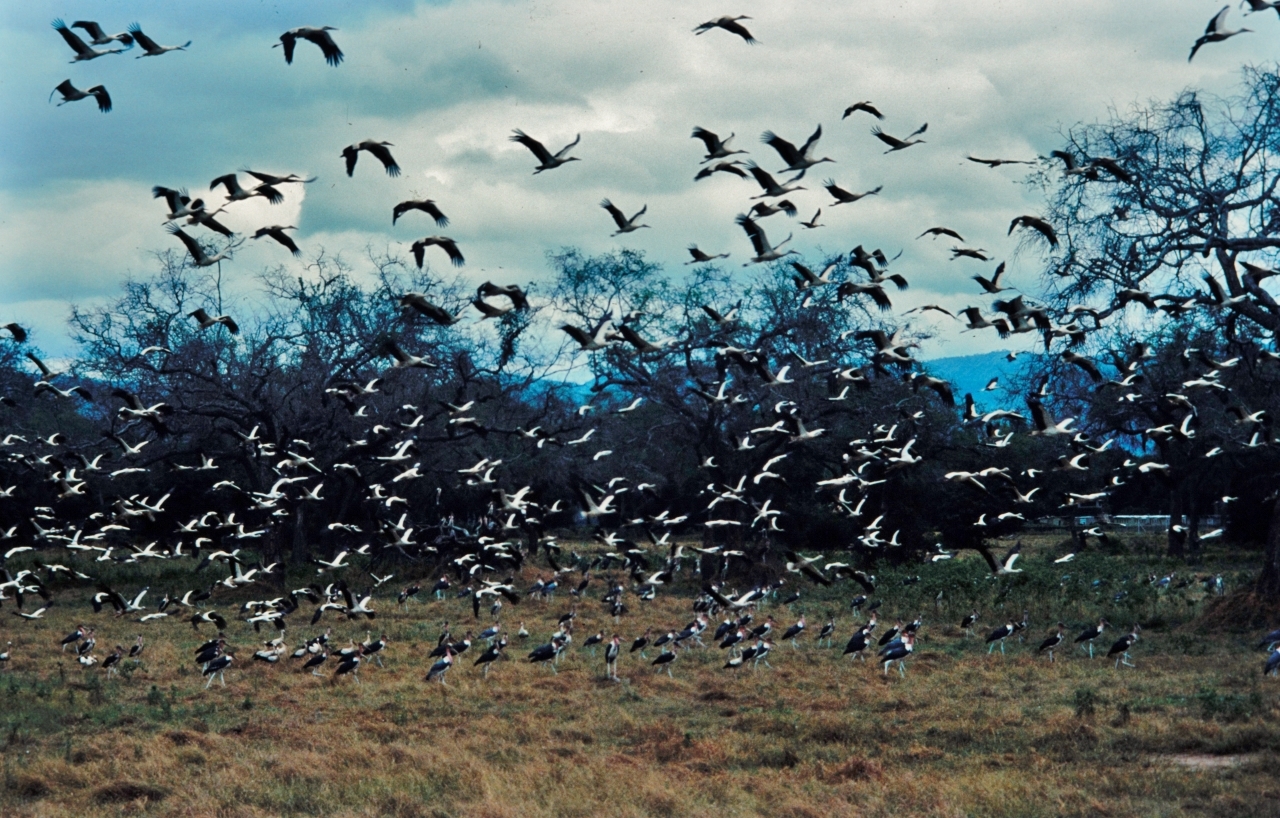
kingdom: Animalia
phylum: Chordata
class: Aves
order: Ciconiiformes
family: Ciconiidae
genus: Leptoptilos
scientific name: Leptoptilos crumenifer
